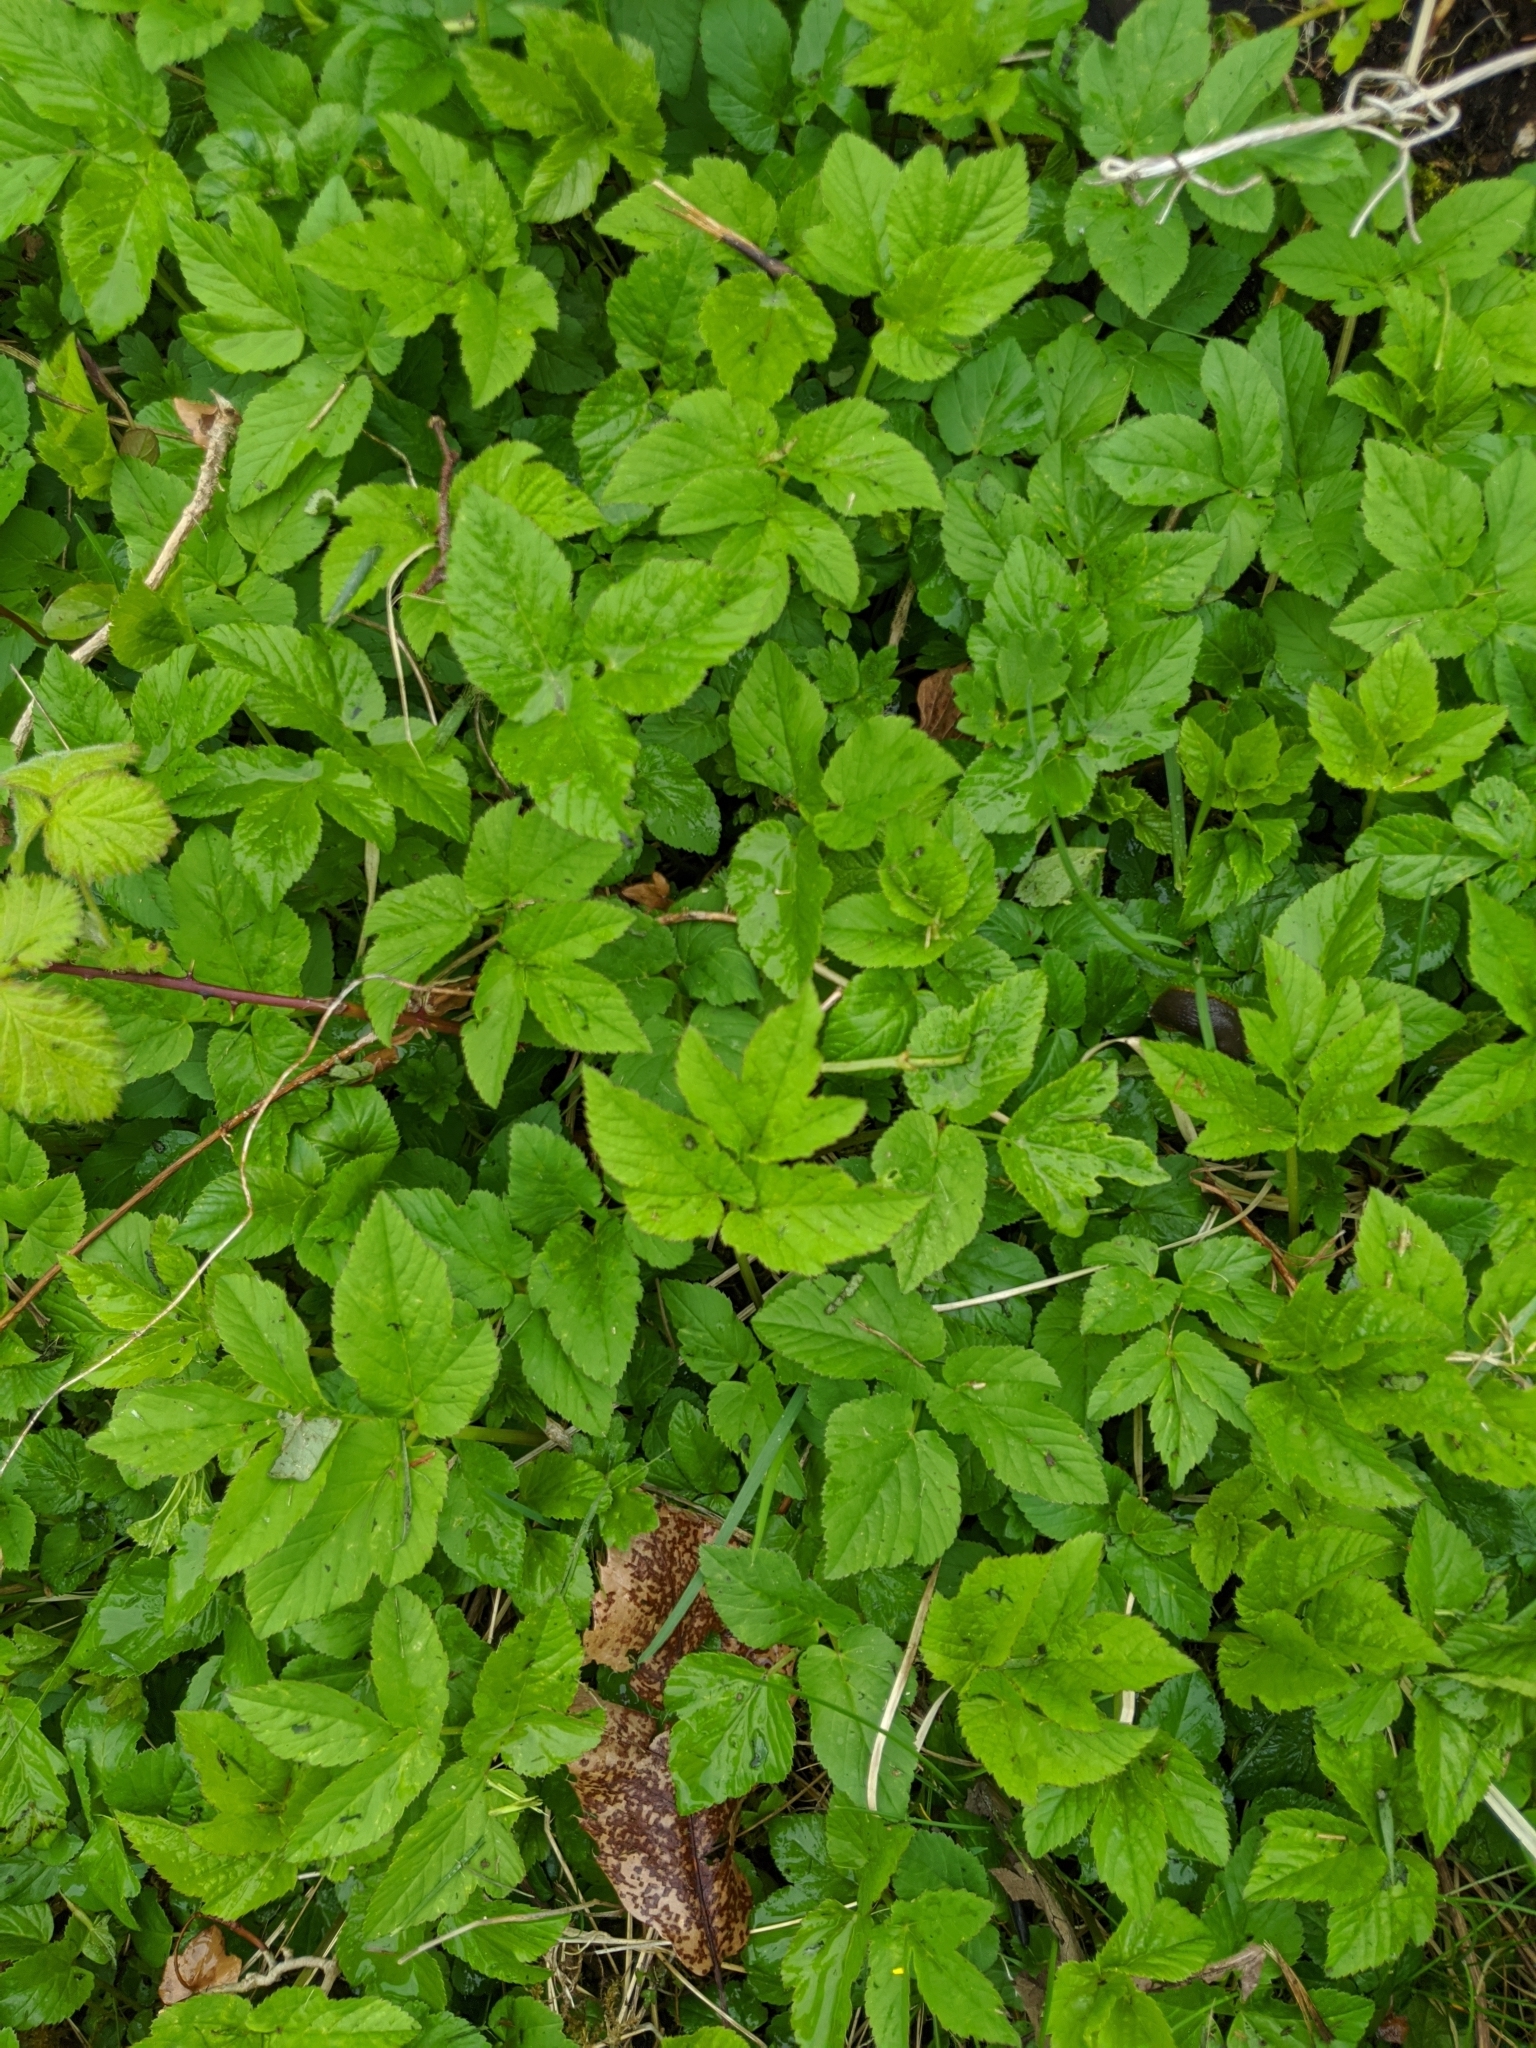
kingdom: Plantae
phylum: Tracheophyta
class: Magnoliopsida
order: Apiales
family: Apiaceae
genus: Aegopodium
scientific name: Aegopodium podagraria
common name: Ground-elder
